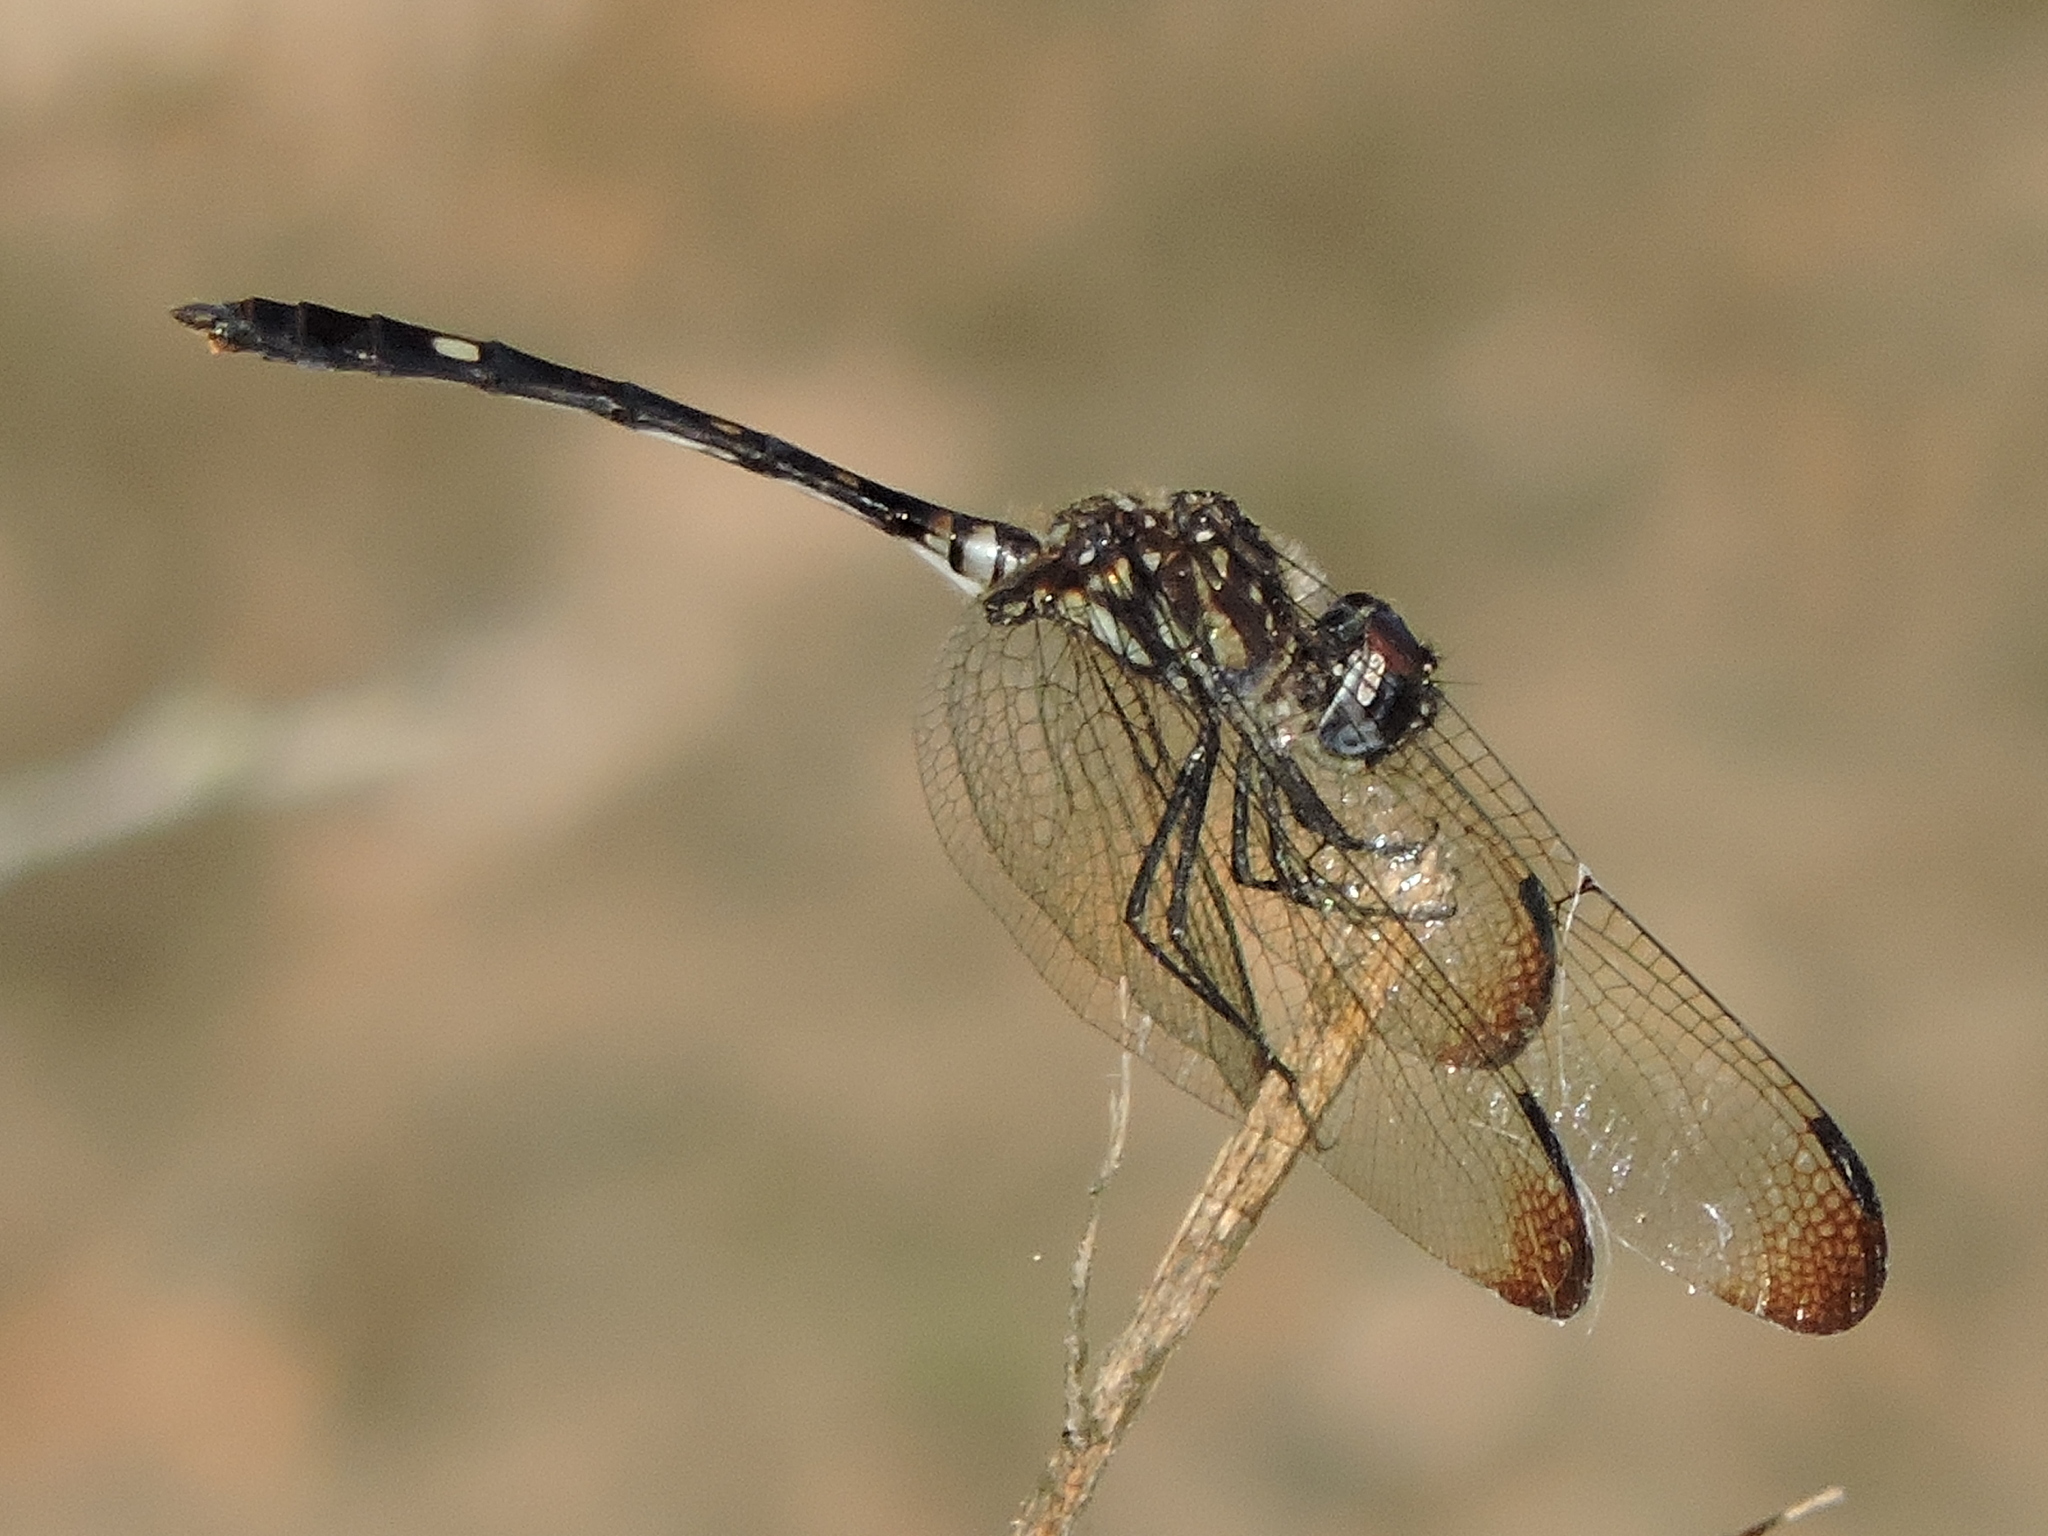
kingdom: Animalia
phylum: Arthropoda
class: Insecta
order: Odonata
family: Libellulidae
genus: Dythemis
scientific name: Dythemis velox
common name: Swift setwing
